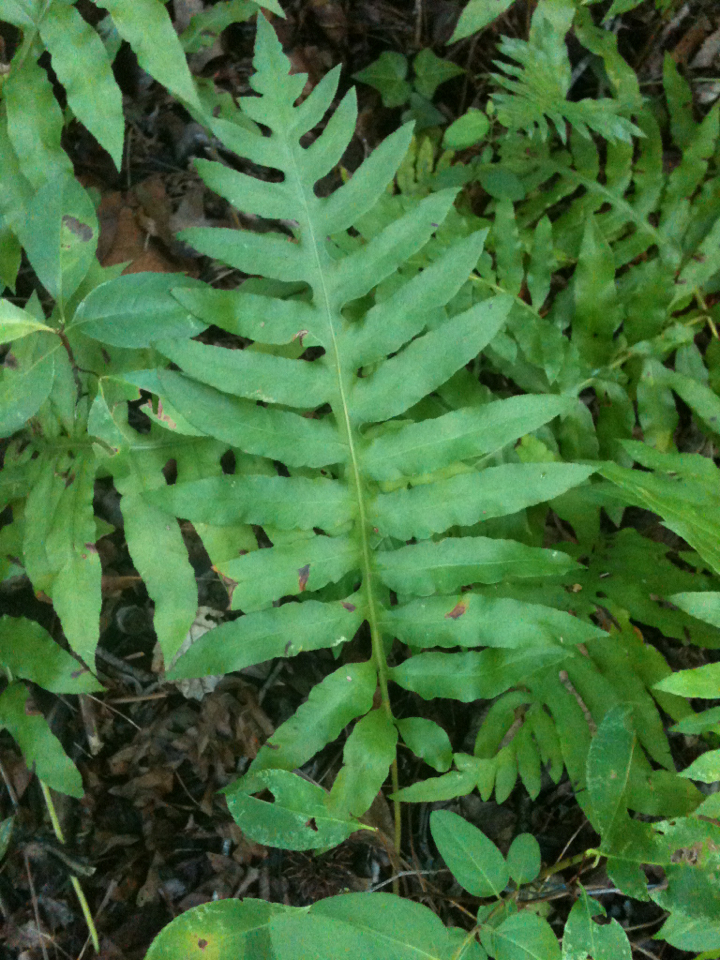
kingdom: Plantae
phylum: Tracheophyta
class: Polypodiopsida
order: Polypodiales
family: Blechnaceae
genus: Lorinseria
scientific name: Lorinseria areolata
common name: Dwarf chain fern
